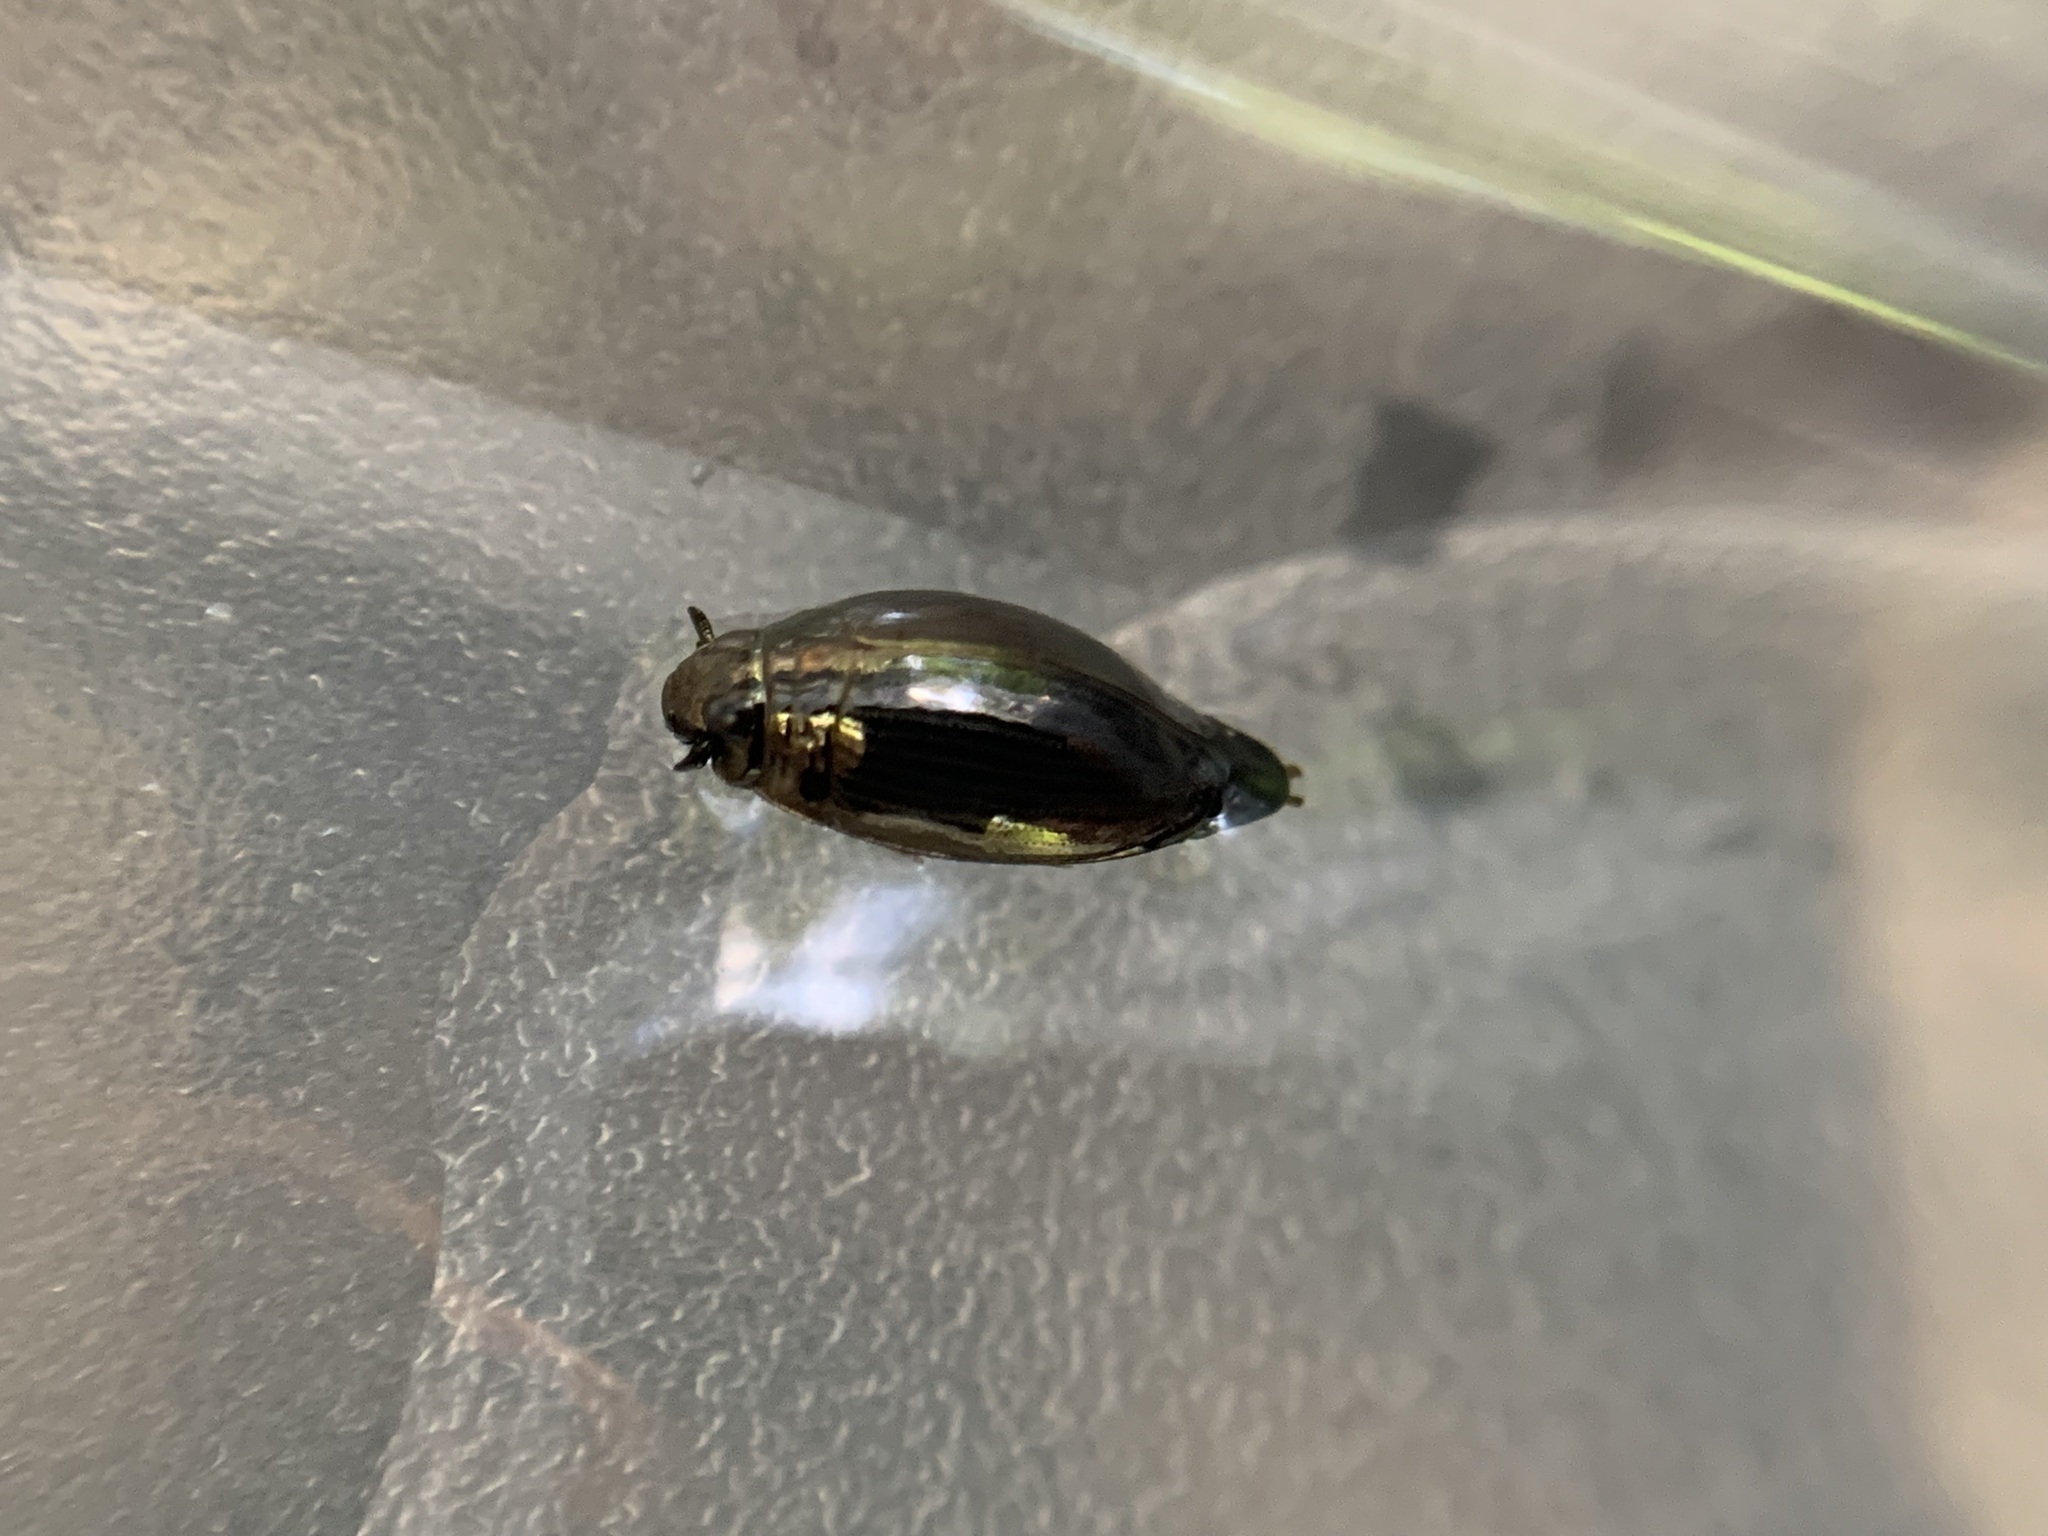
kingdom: Animalia
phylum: Arthropoda
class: Insecta
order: Coleoptera
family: Gyrinidae
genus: Gyrinus
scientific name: Gyrinus
